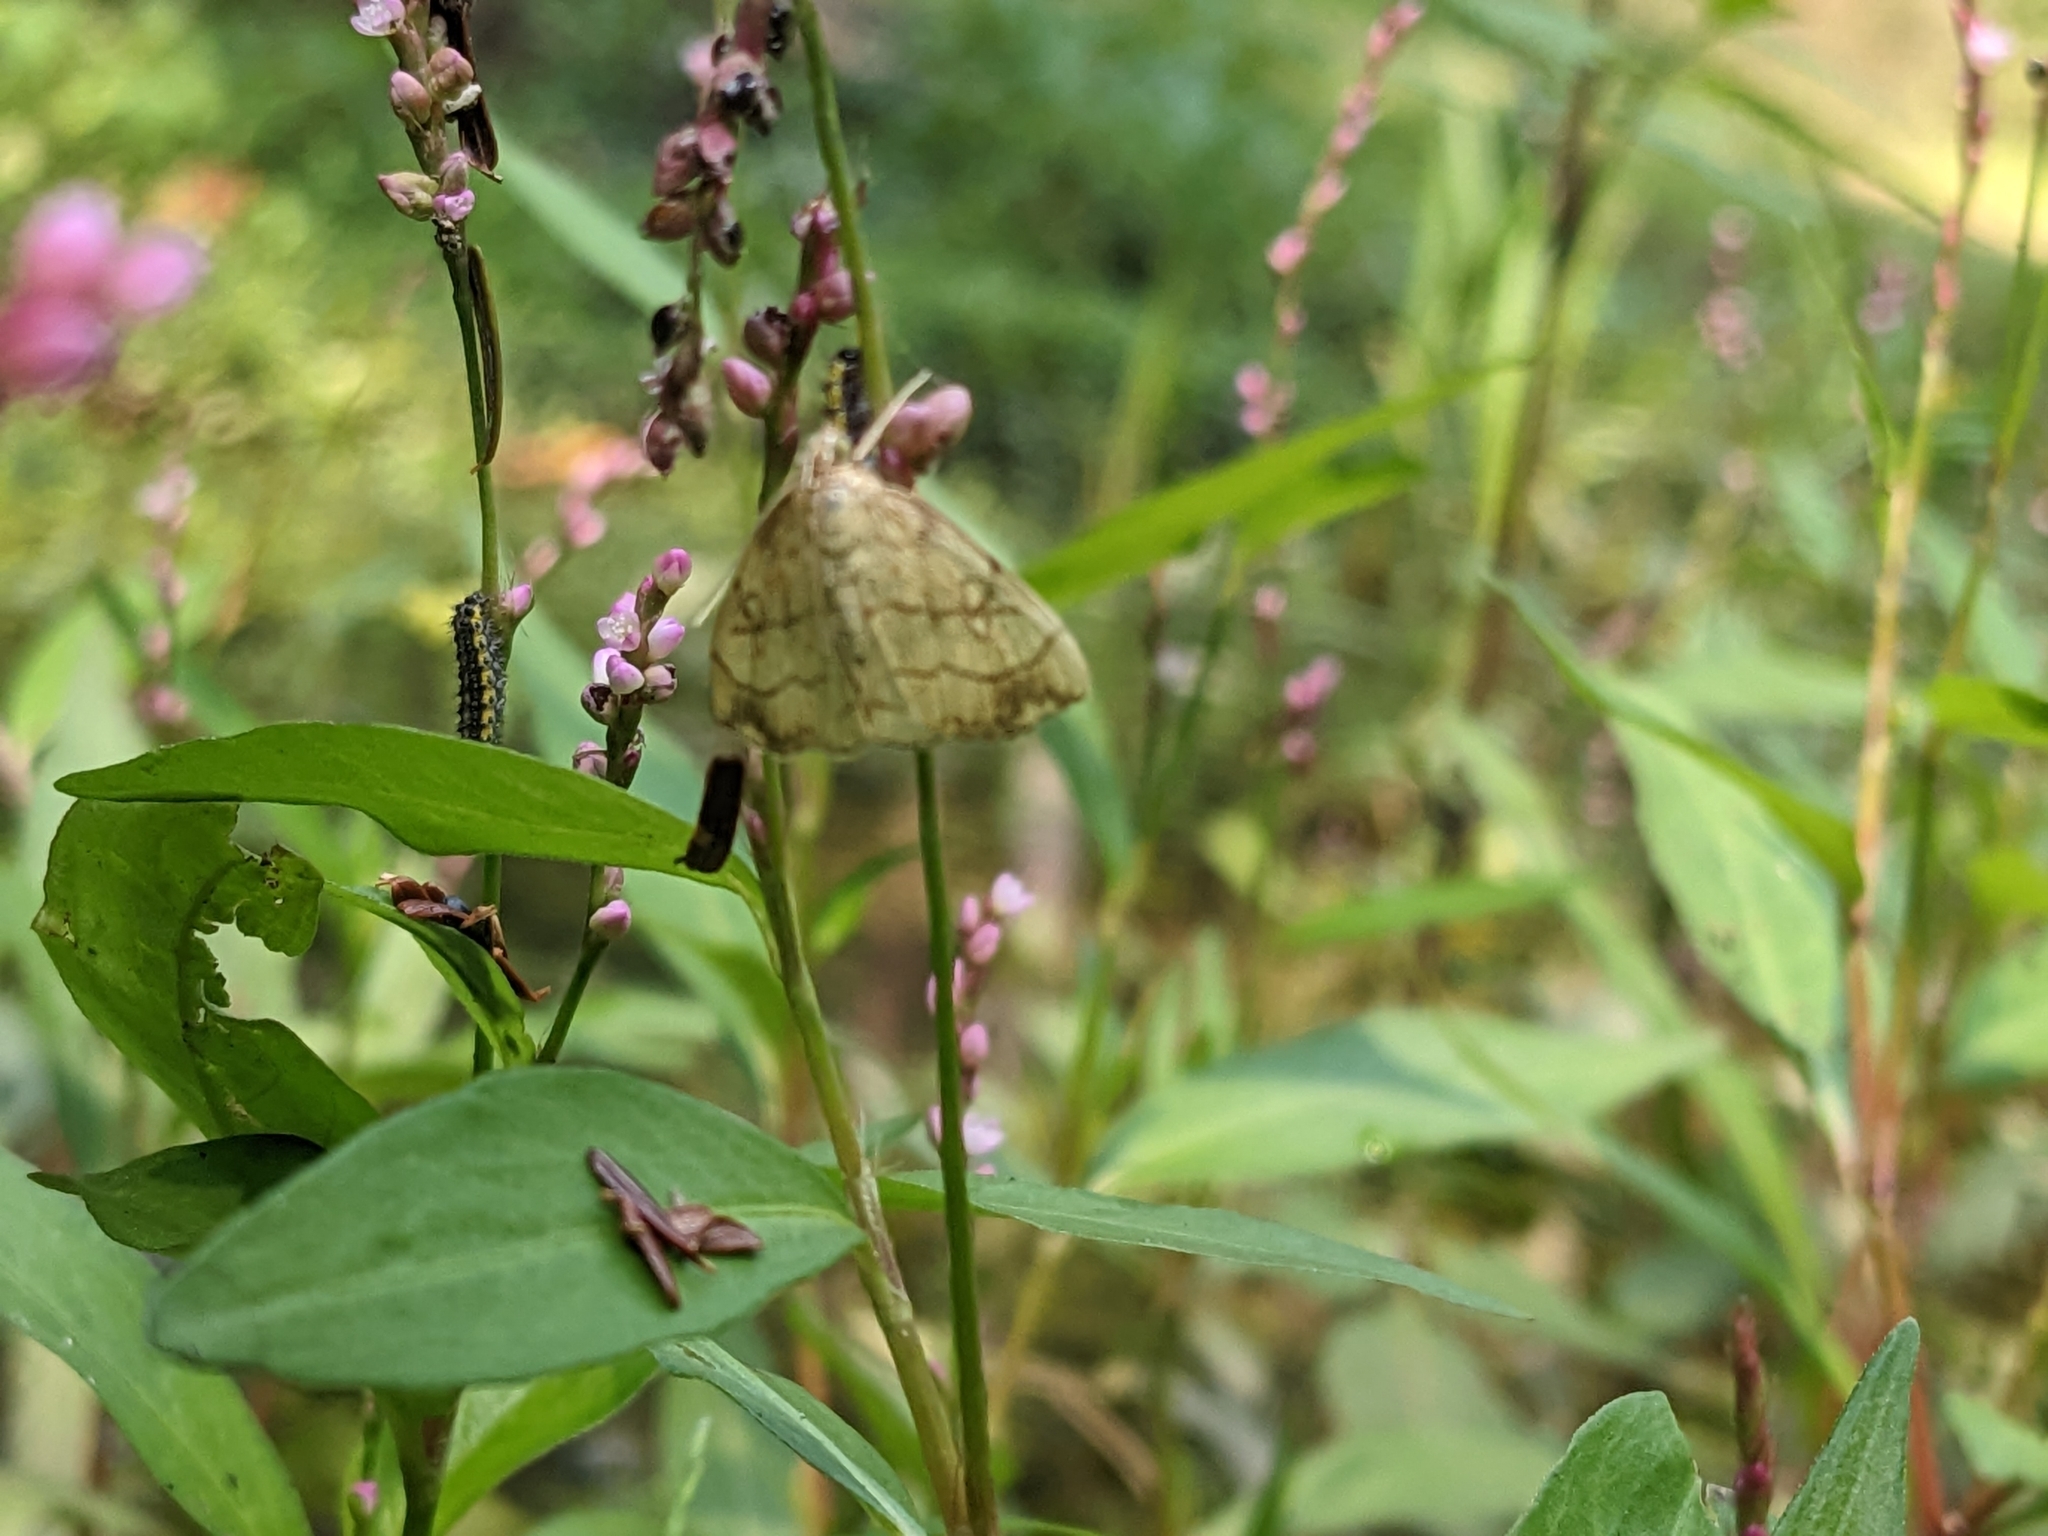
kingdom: Animalia
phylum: Arthropoda
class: Insecta
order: Lepidoptera
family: Crambidae
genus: Evergestis
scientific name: Evergestis pallidata
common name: Chequered pearl
